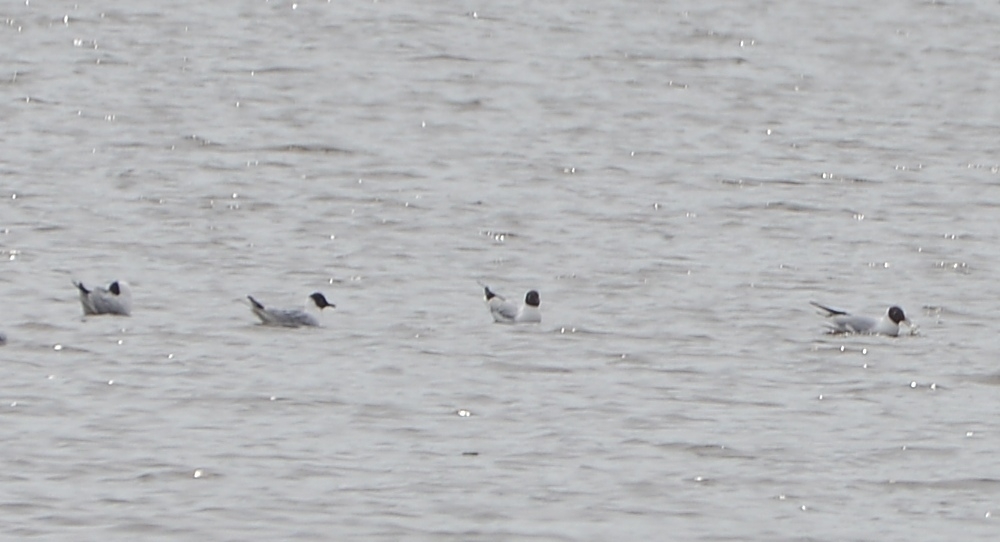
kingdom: Animalia
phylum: Chordata
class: Aves
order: Charadriiformes
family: Laridae
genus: Chroicocephalus
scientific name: Chroicocephalus ridibundus
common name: Black-headed gull
